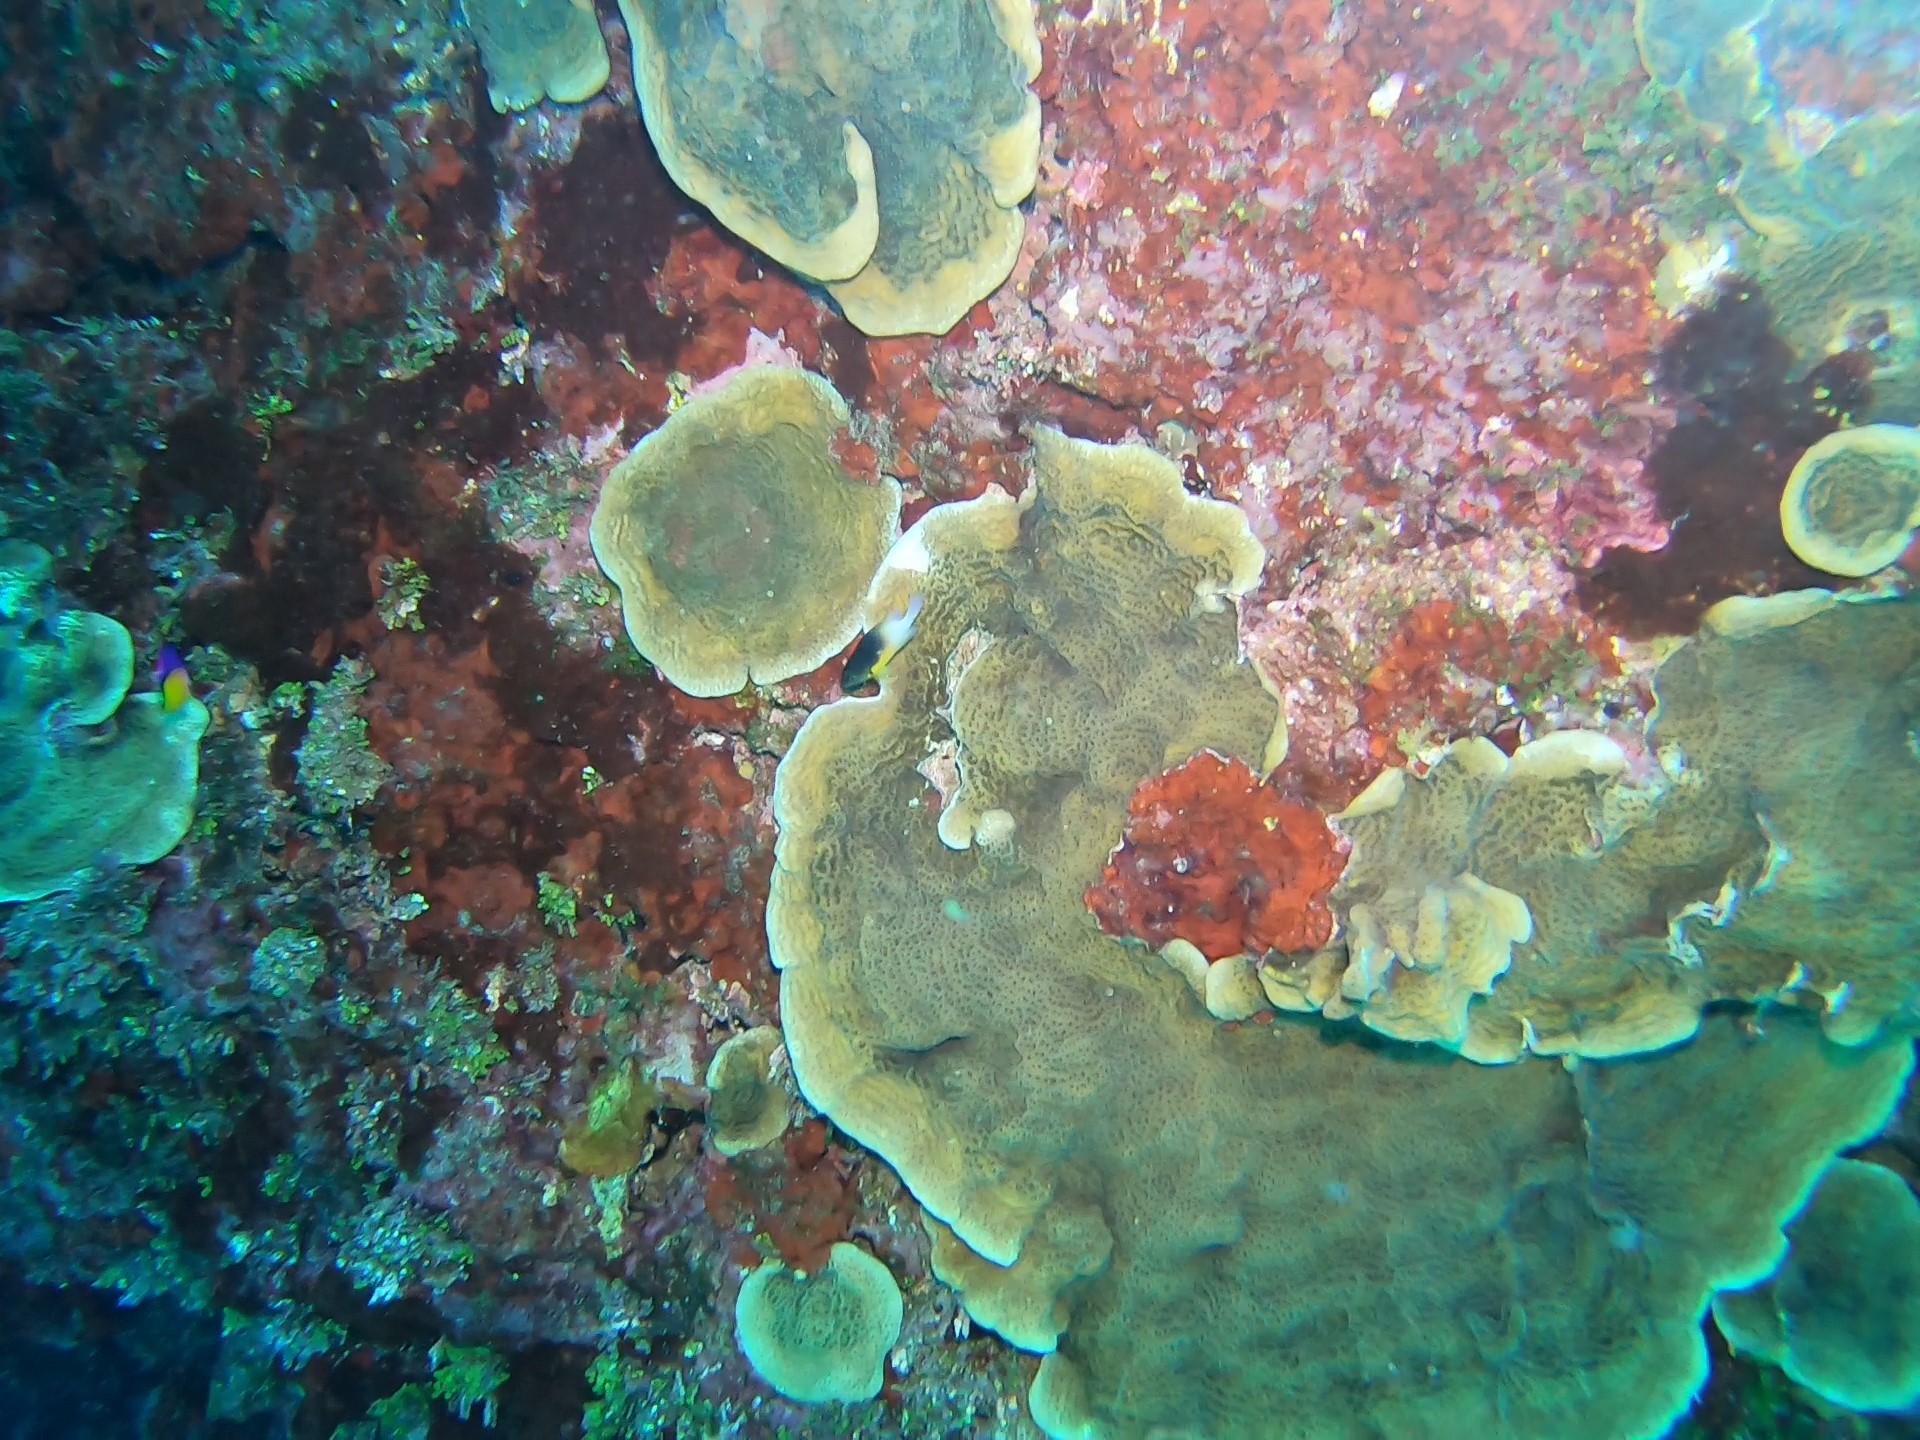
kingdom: Animalia
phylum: Chordata
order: Perciformes
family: Pomacentridae
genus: Stegastes
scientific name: Stegastes partitus
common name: Bicolor damselfish
